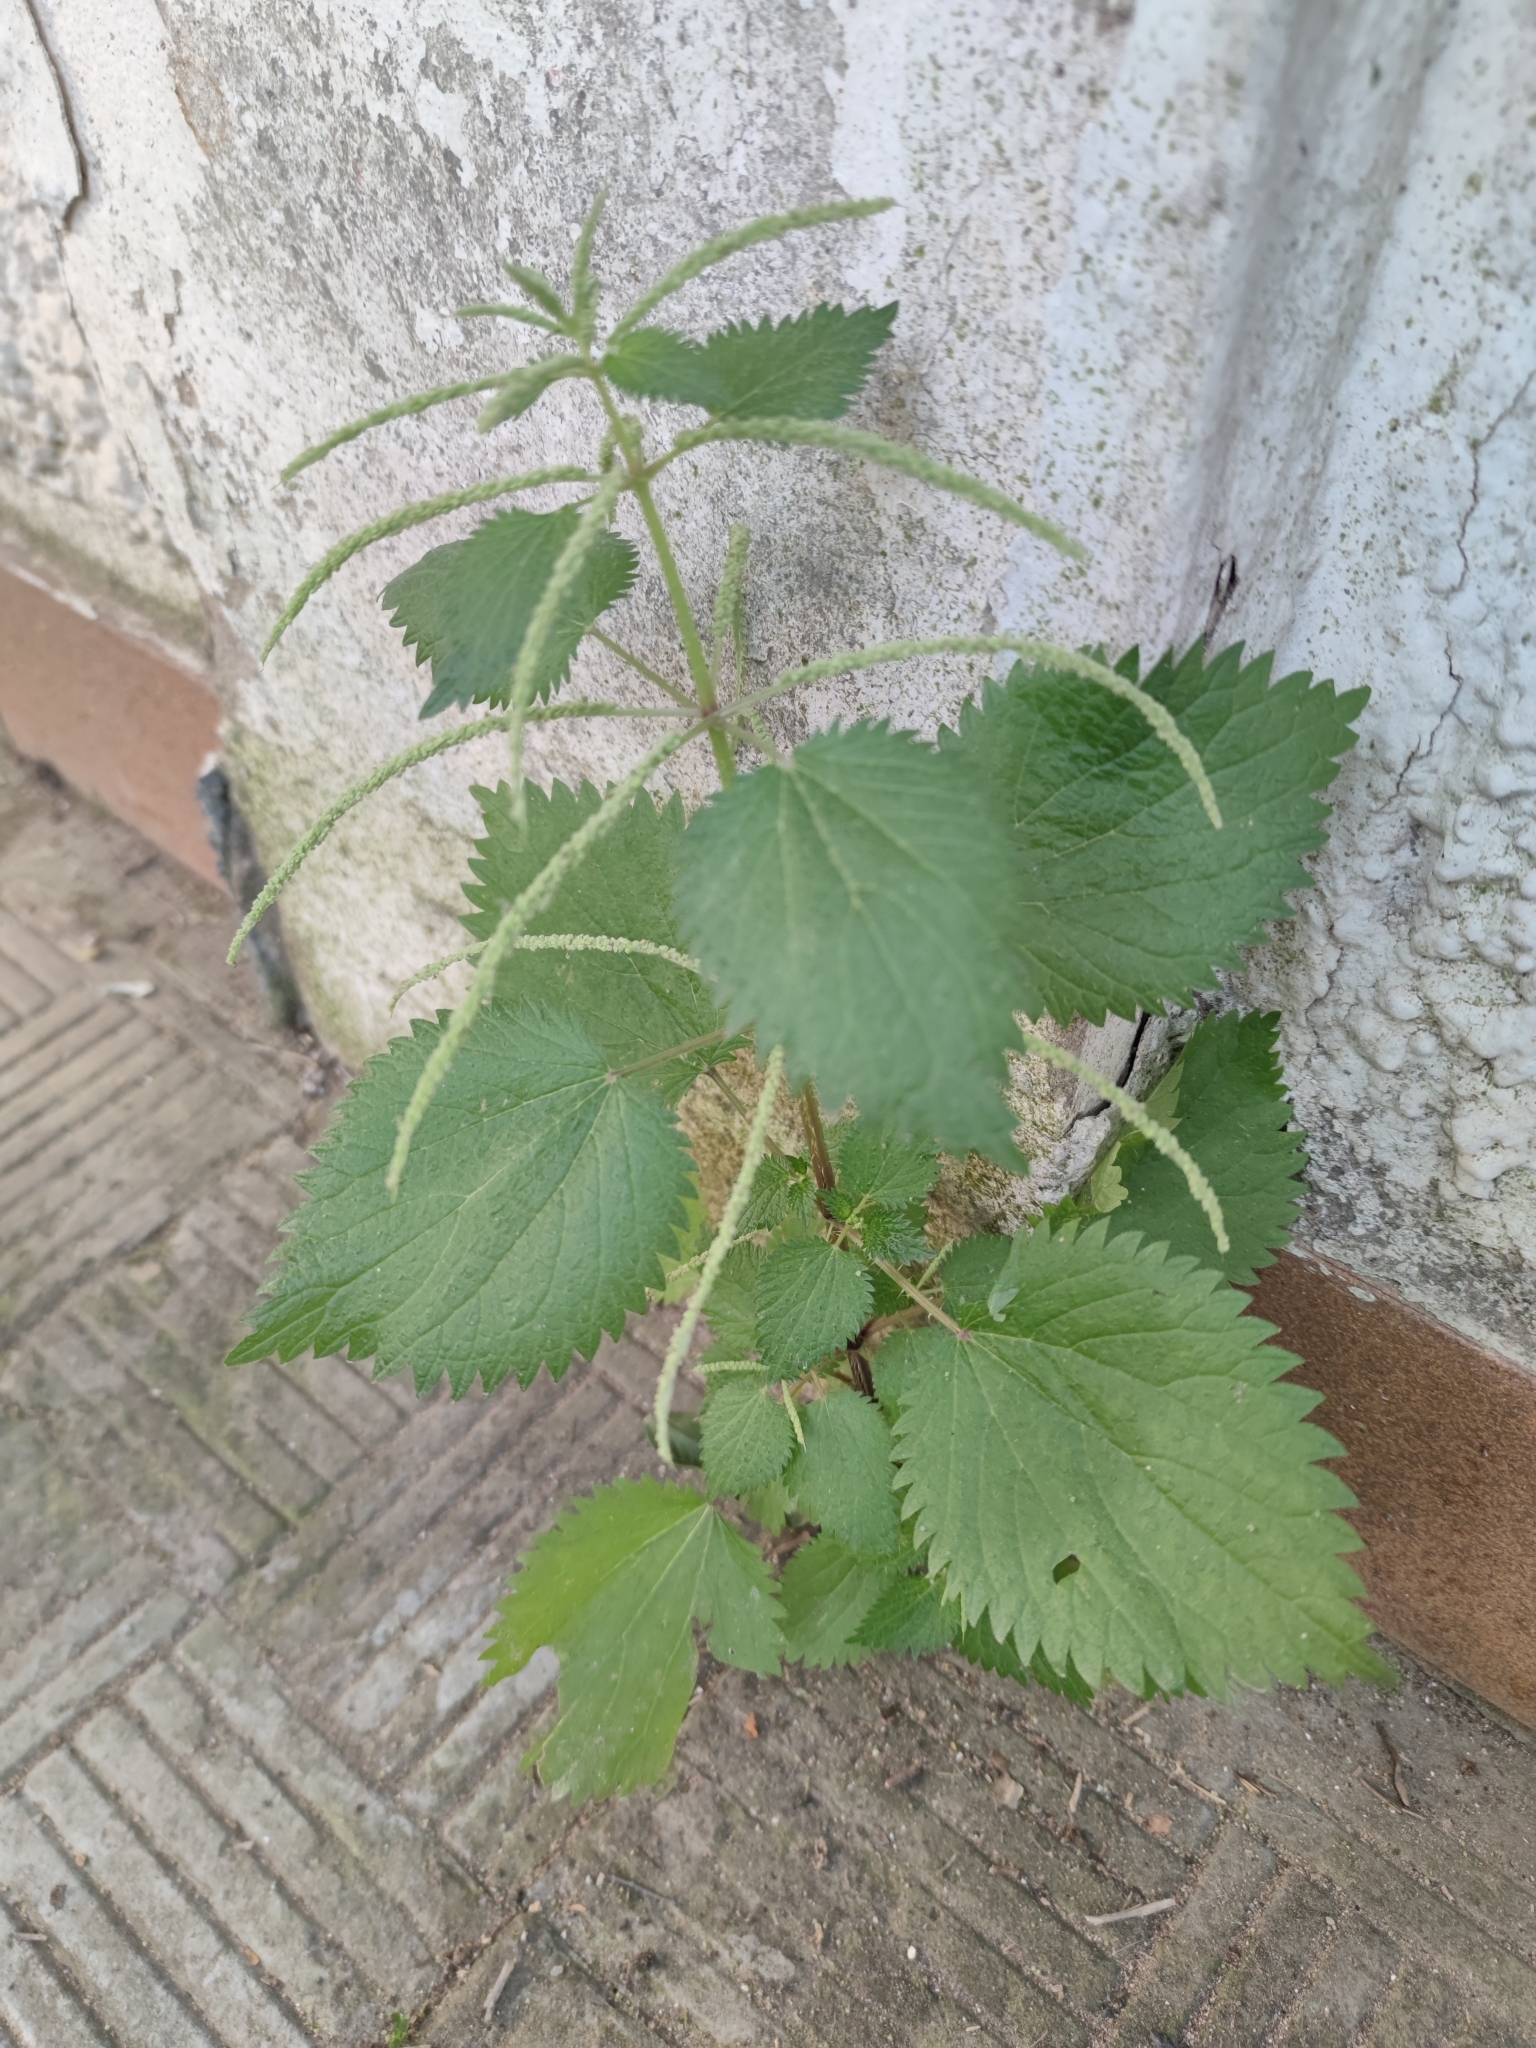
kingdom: Plantae
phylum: Tracheophyta
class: Magnoliopsida
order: Rosales
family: Urticaceae
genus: Urtica
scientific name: Urtica membranacea
